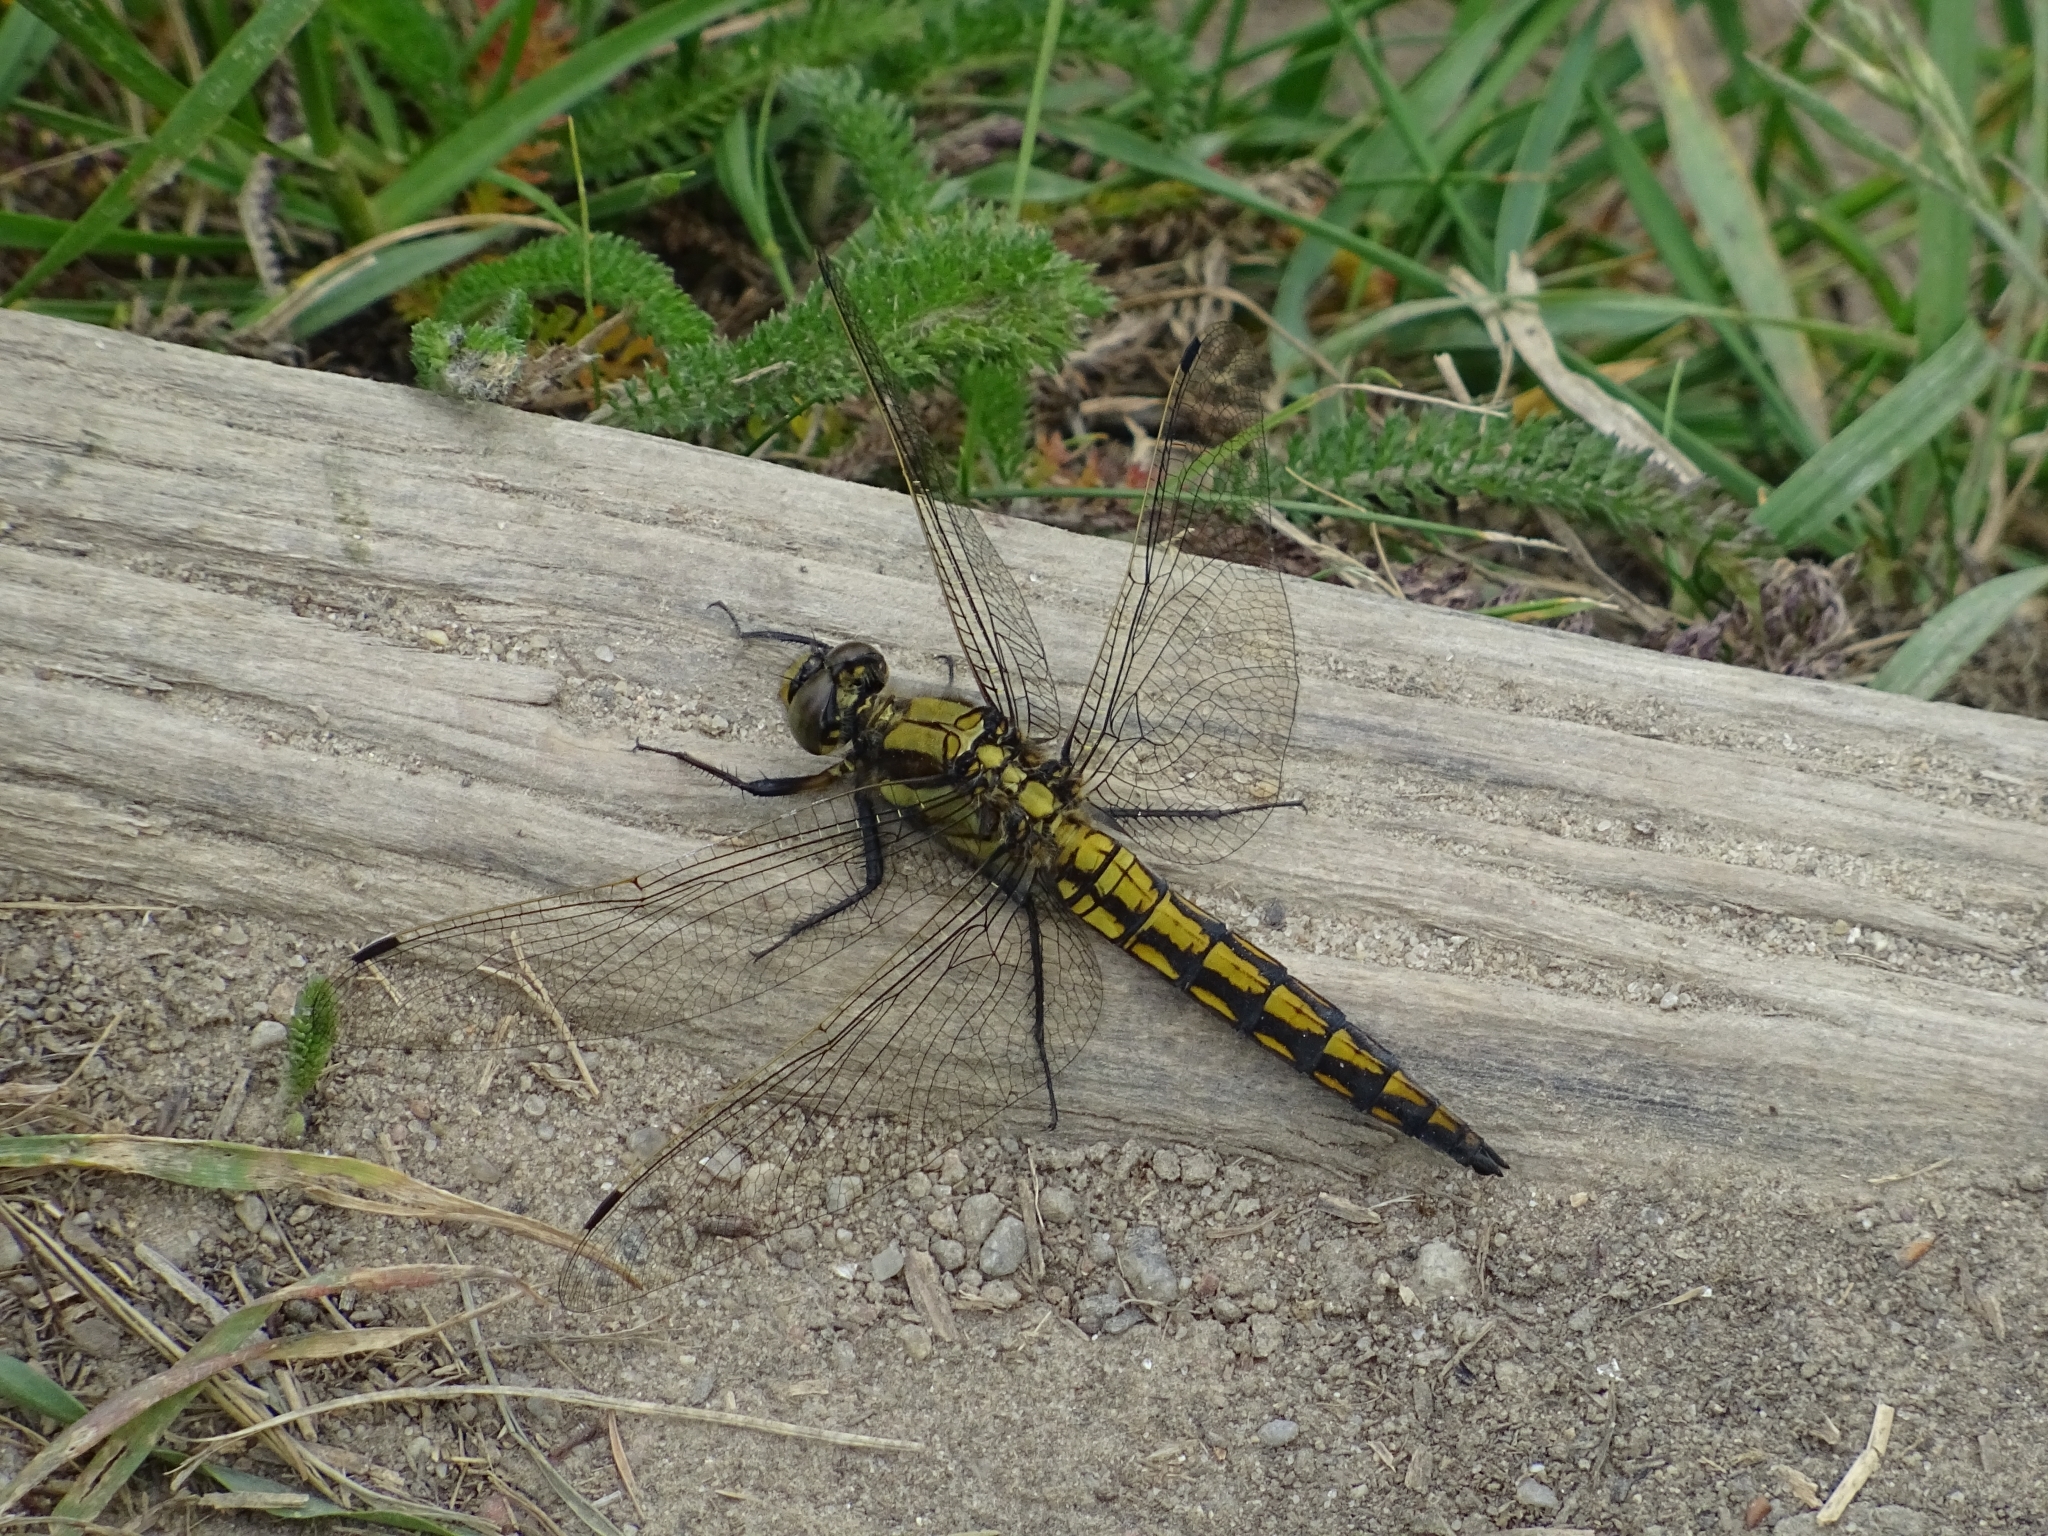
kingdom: Animalia
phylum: Arthropoda
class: Insecta
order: Odonata
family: Libellulidae
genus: Orthetrum
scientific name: Orthetrum cancellatum
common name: Black-tailed skimmer
